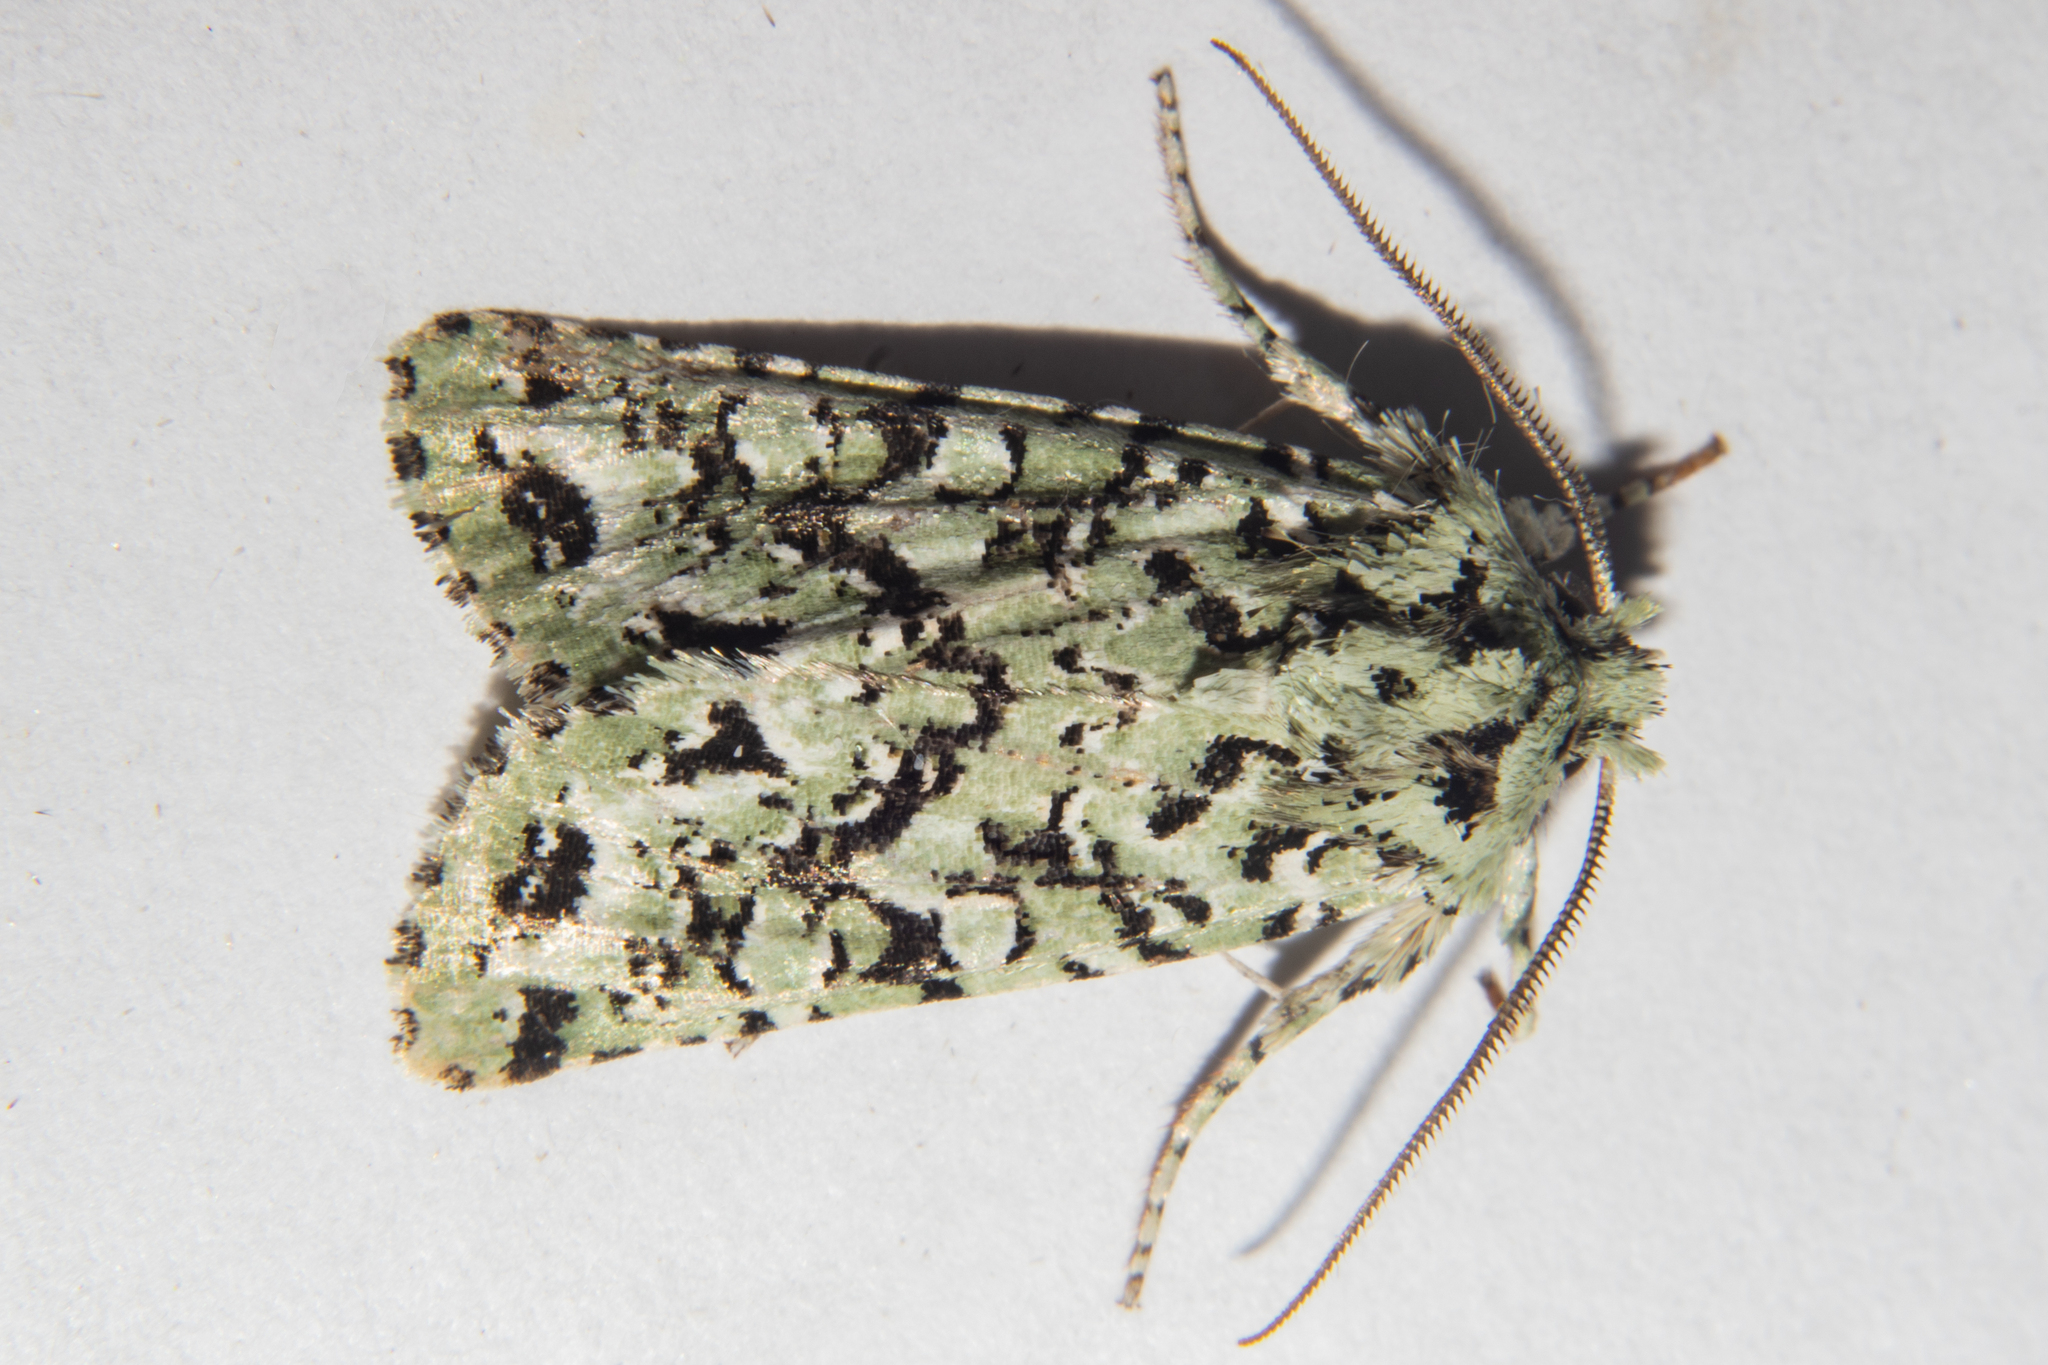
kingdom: Animalia
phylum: Arthropoda
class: Insecta
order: Lepidoptera
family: Noctuidae
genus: Meterana
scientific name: Meterana
